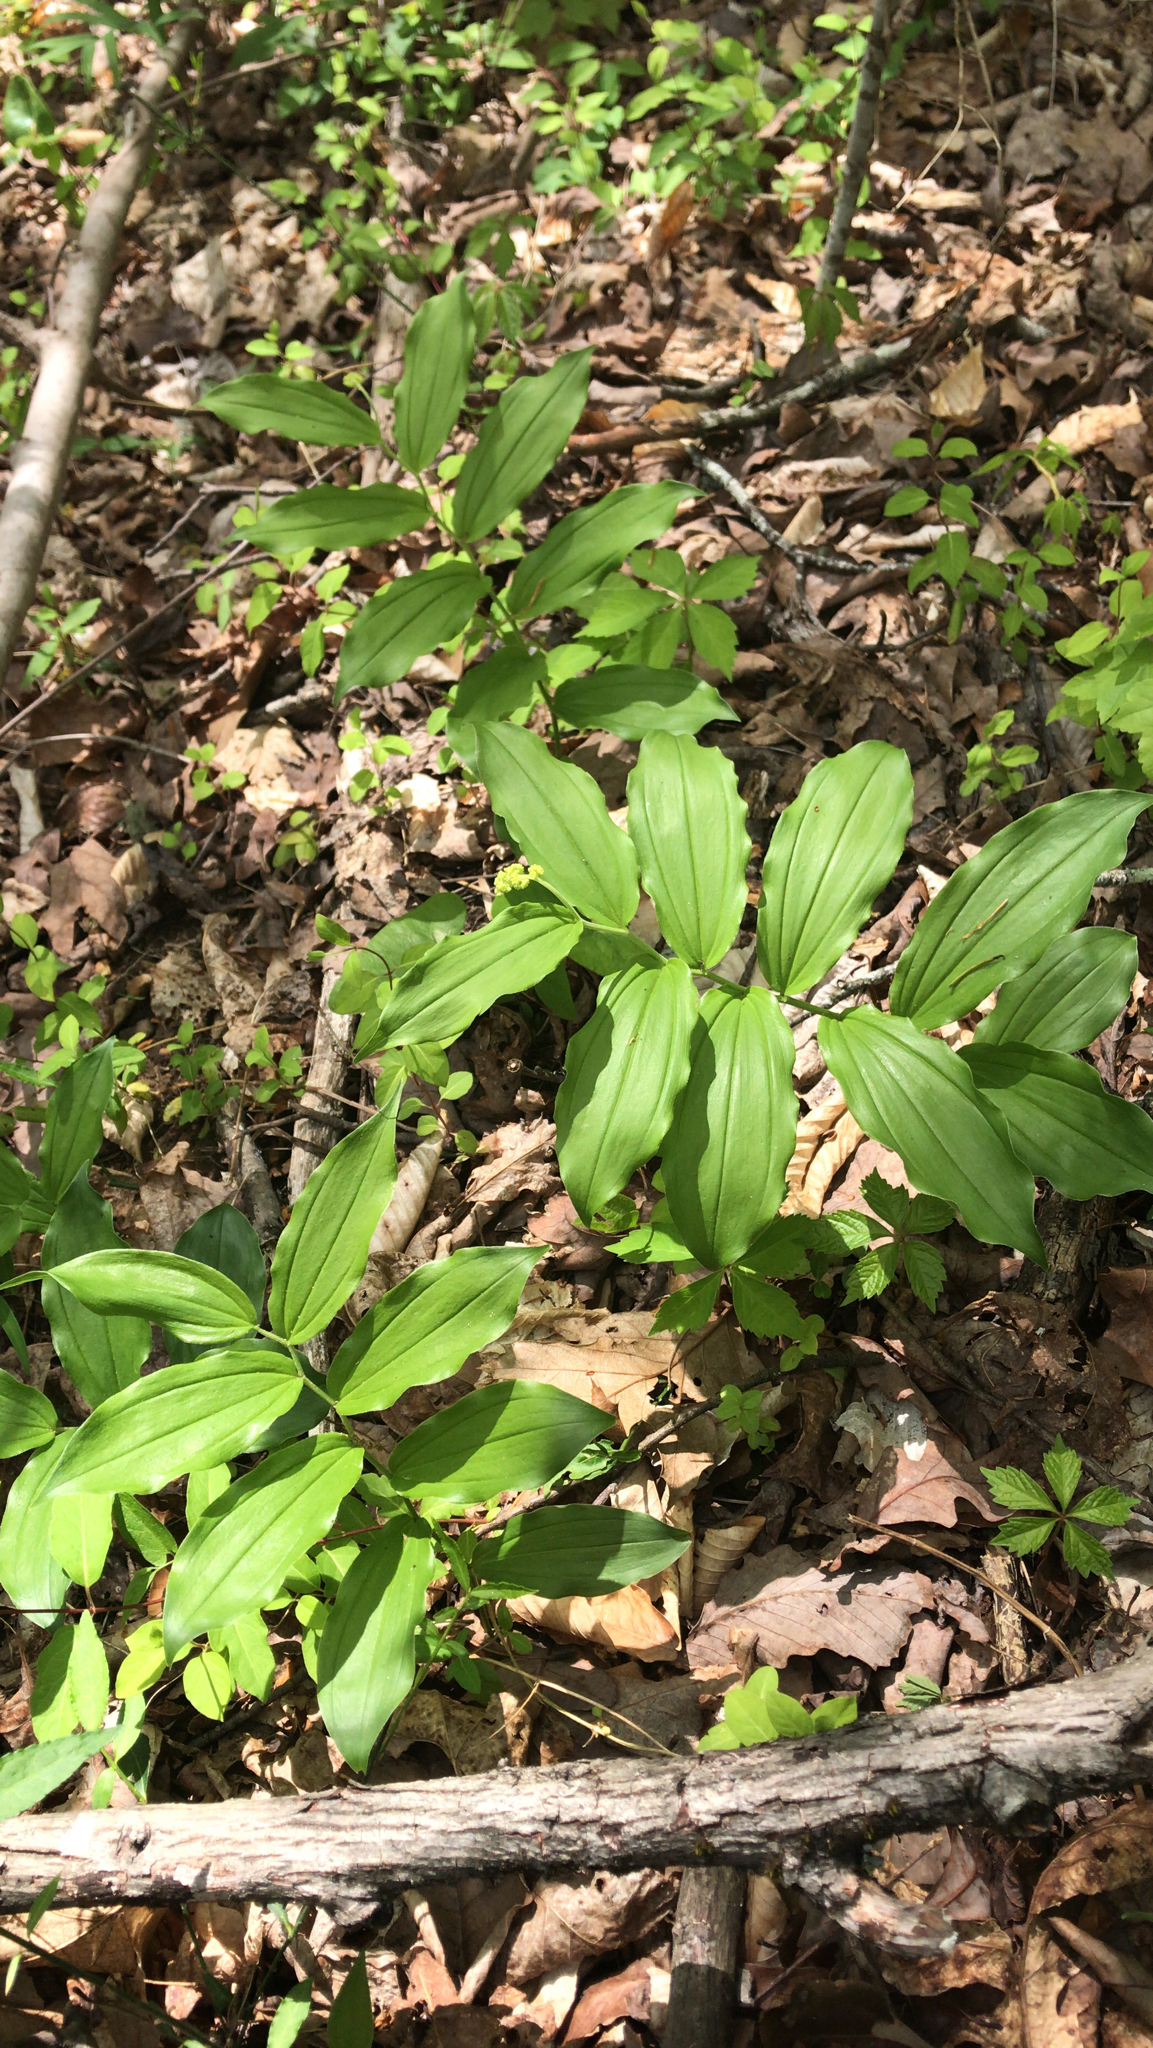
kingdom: Plantae
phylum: Tracheophyta
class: Liliopsida
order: Asparagales
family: Asparagaceae
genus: Maianthemum
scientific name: Maianthemum racemosum
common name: False spikenard
